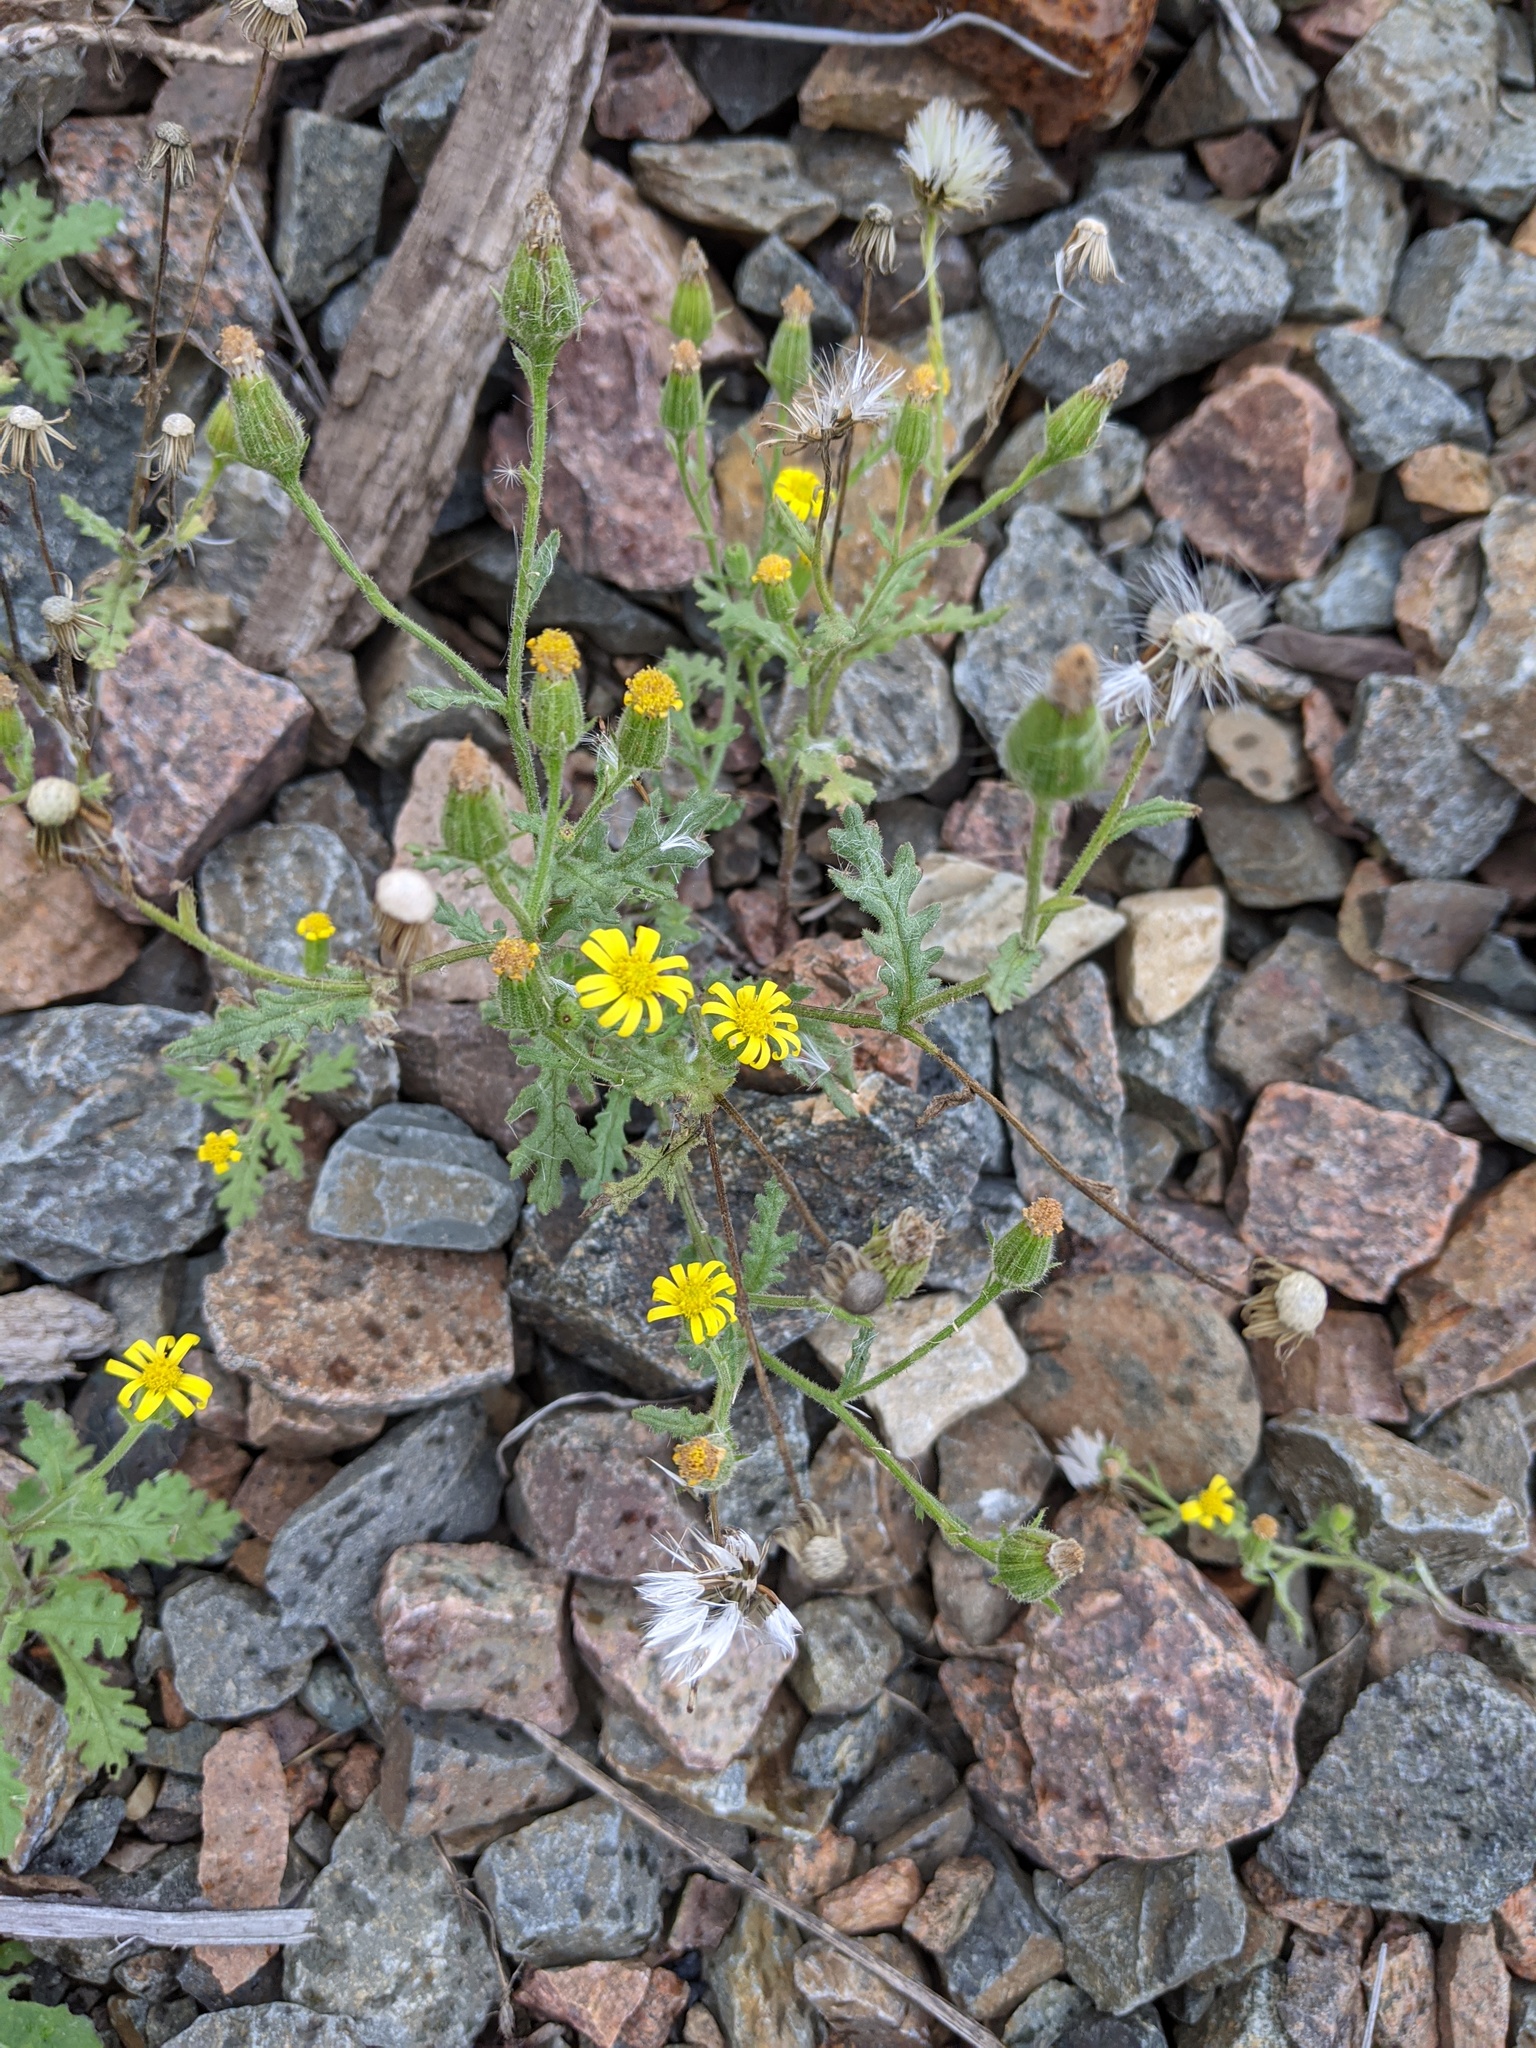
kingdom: Plantae
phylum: Tracheophyta
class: Magnoliopsida
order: Asterales
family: Asteraceae
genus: Senecio
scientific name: Senecio viscosus
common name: Sticky groundsel
